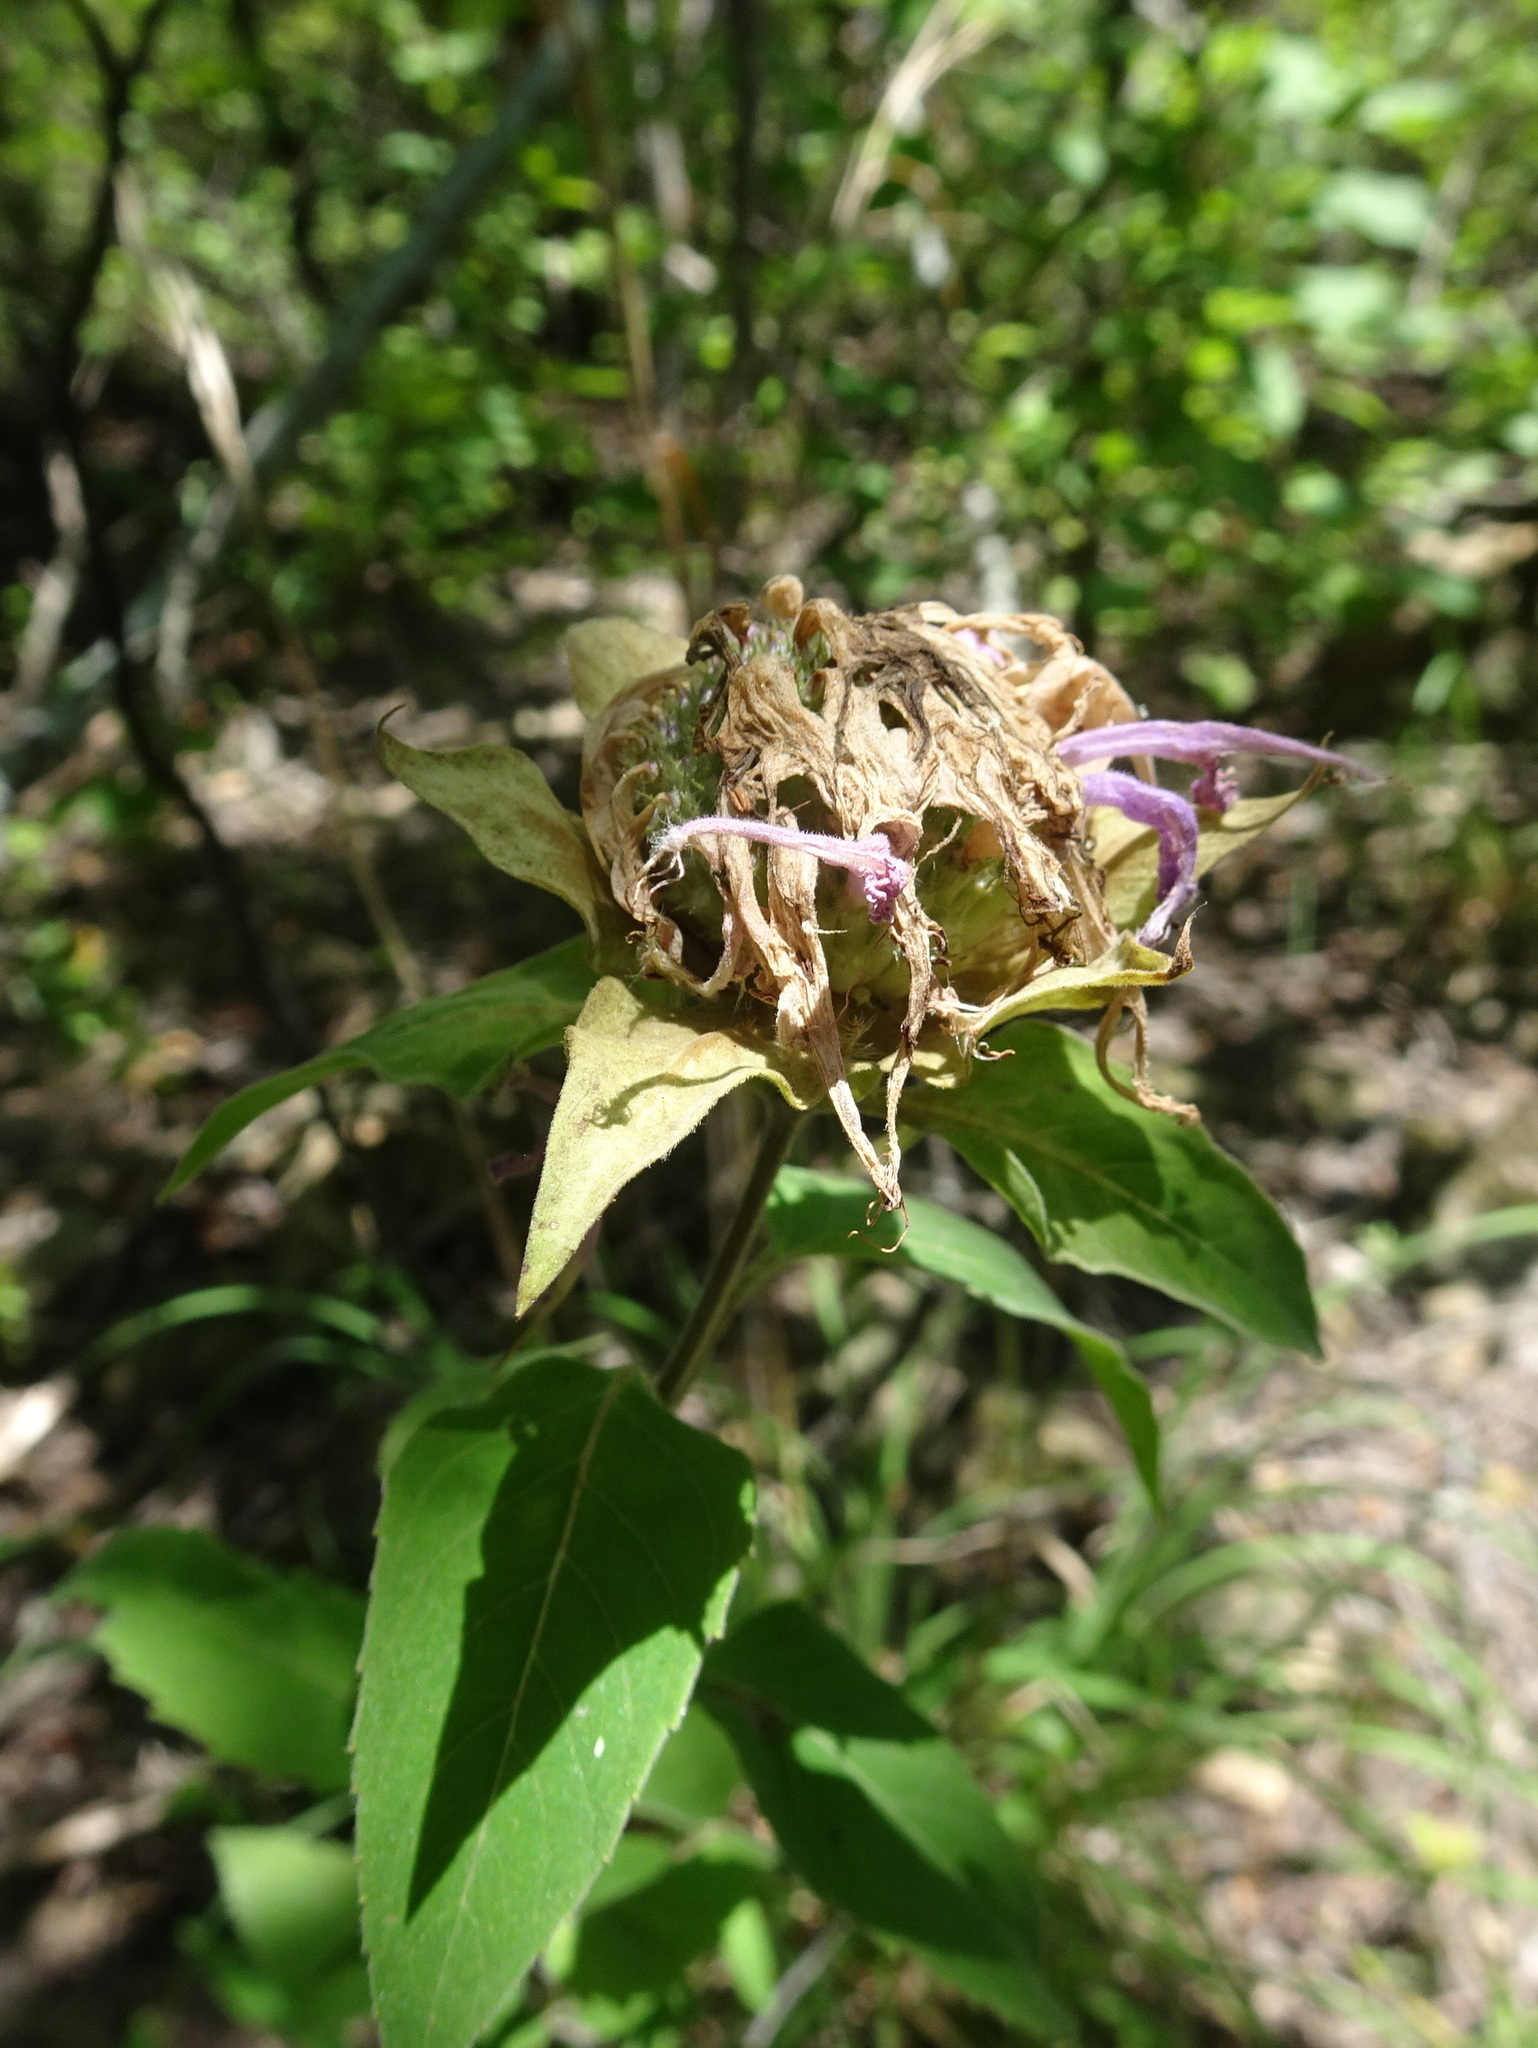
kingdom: Plantae
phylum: Tracheophyta
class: Magnoliopsida
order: Lamiales
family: Lamiaceae
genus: Monarda
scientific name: Monarda fistulosa
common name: Purple beebalm
